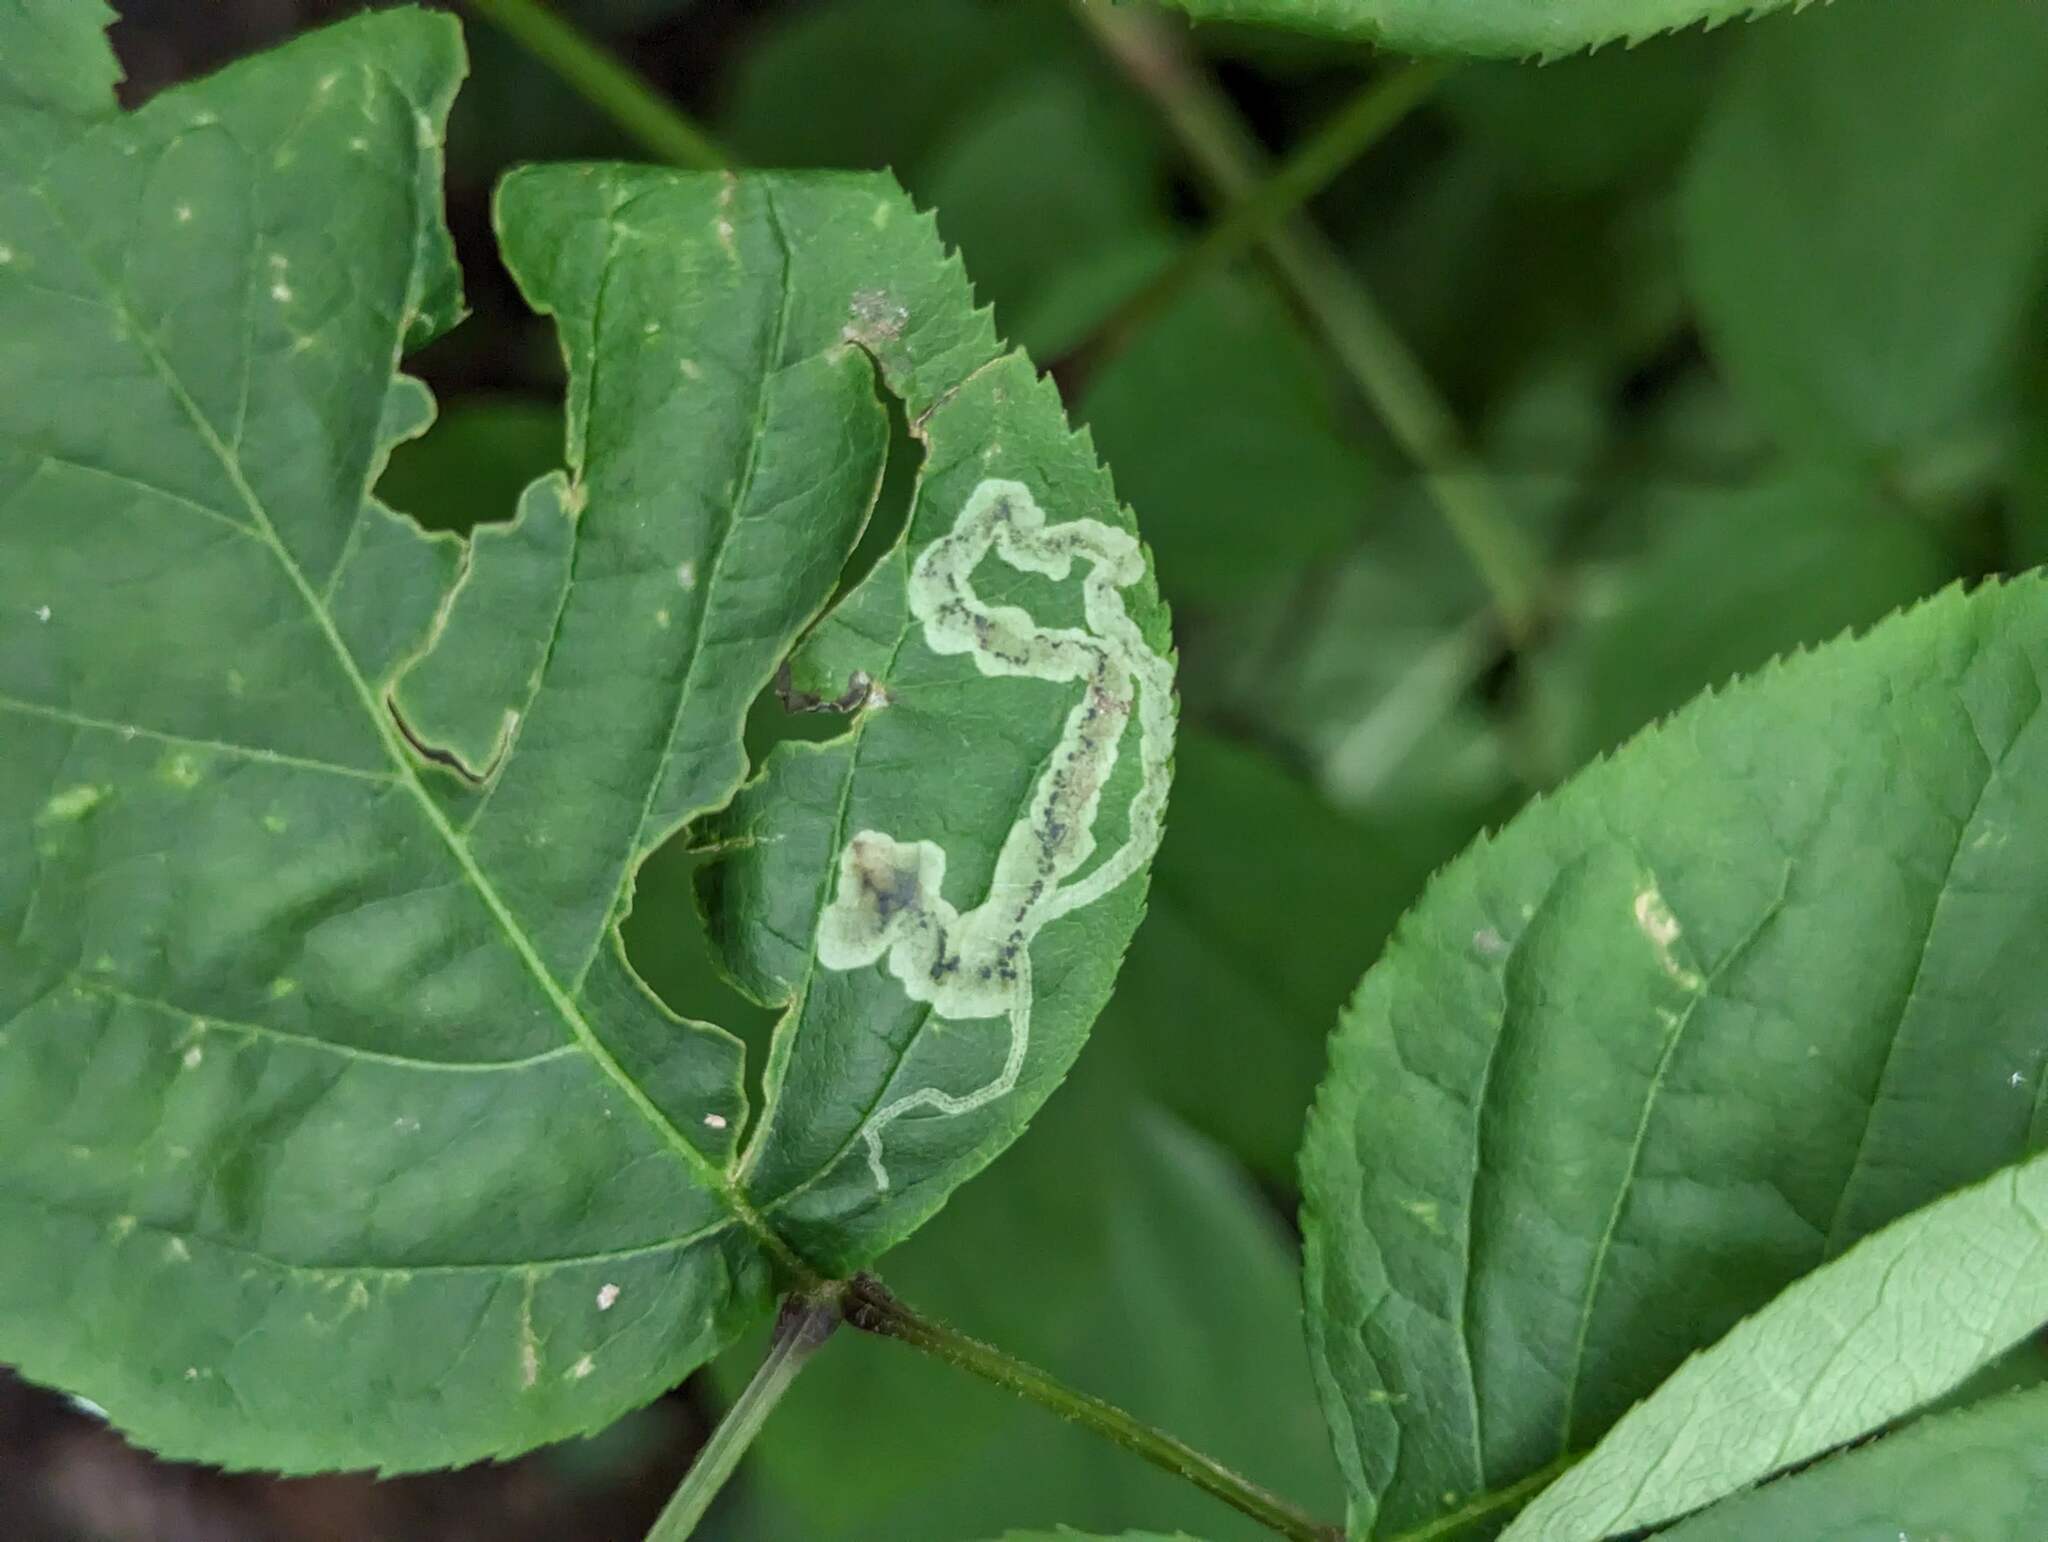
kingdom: Animalia
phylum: Arthropoda
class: Insecta
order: Diptera
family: Agromyzidae
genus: Phytomyza
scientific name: Phytomyza aralivora
